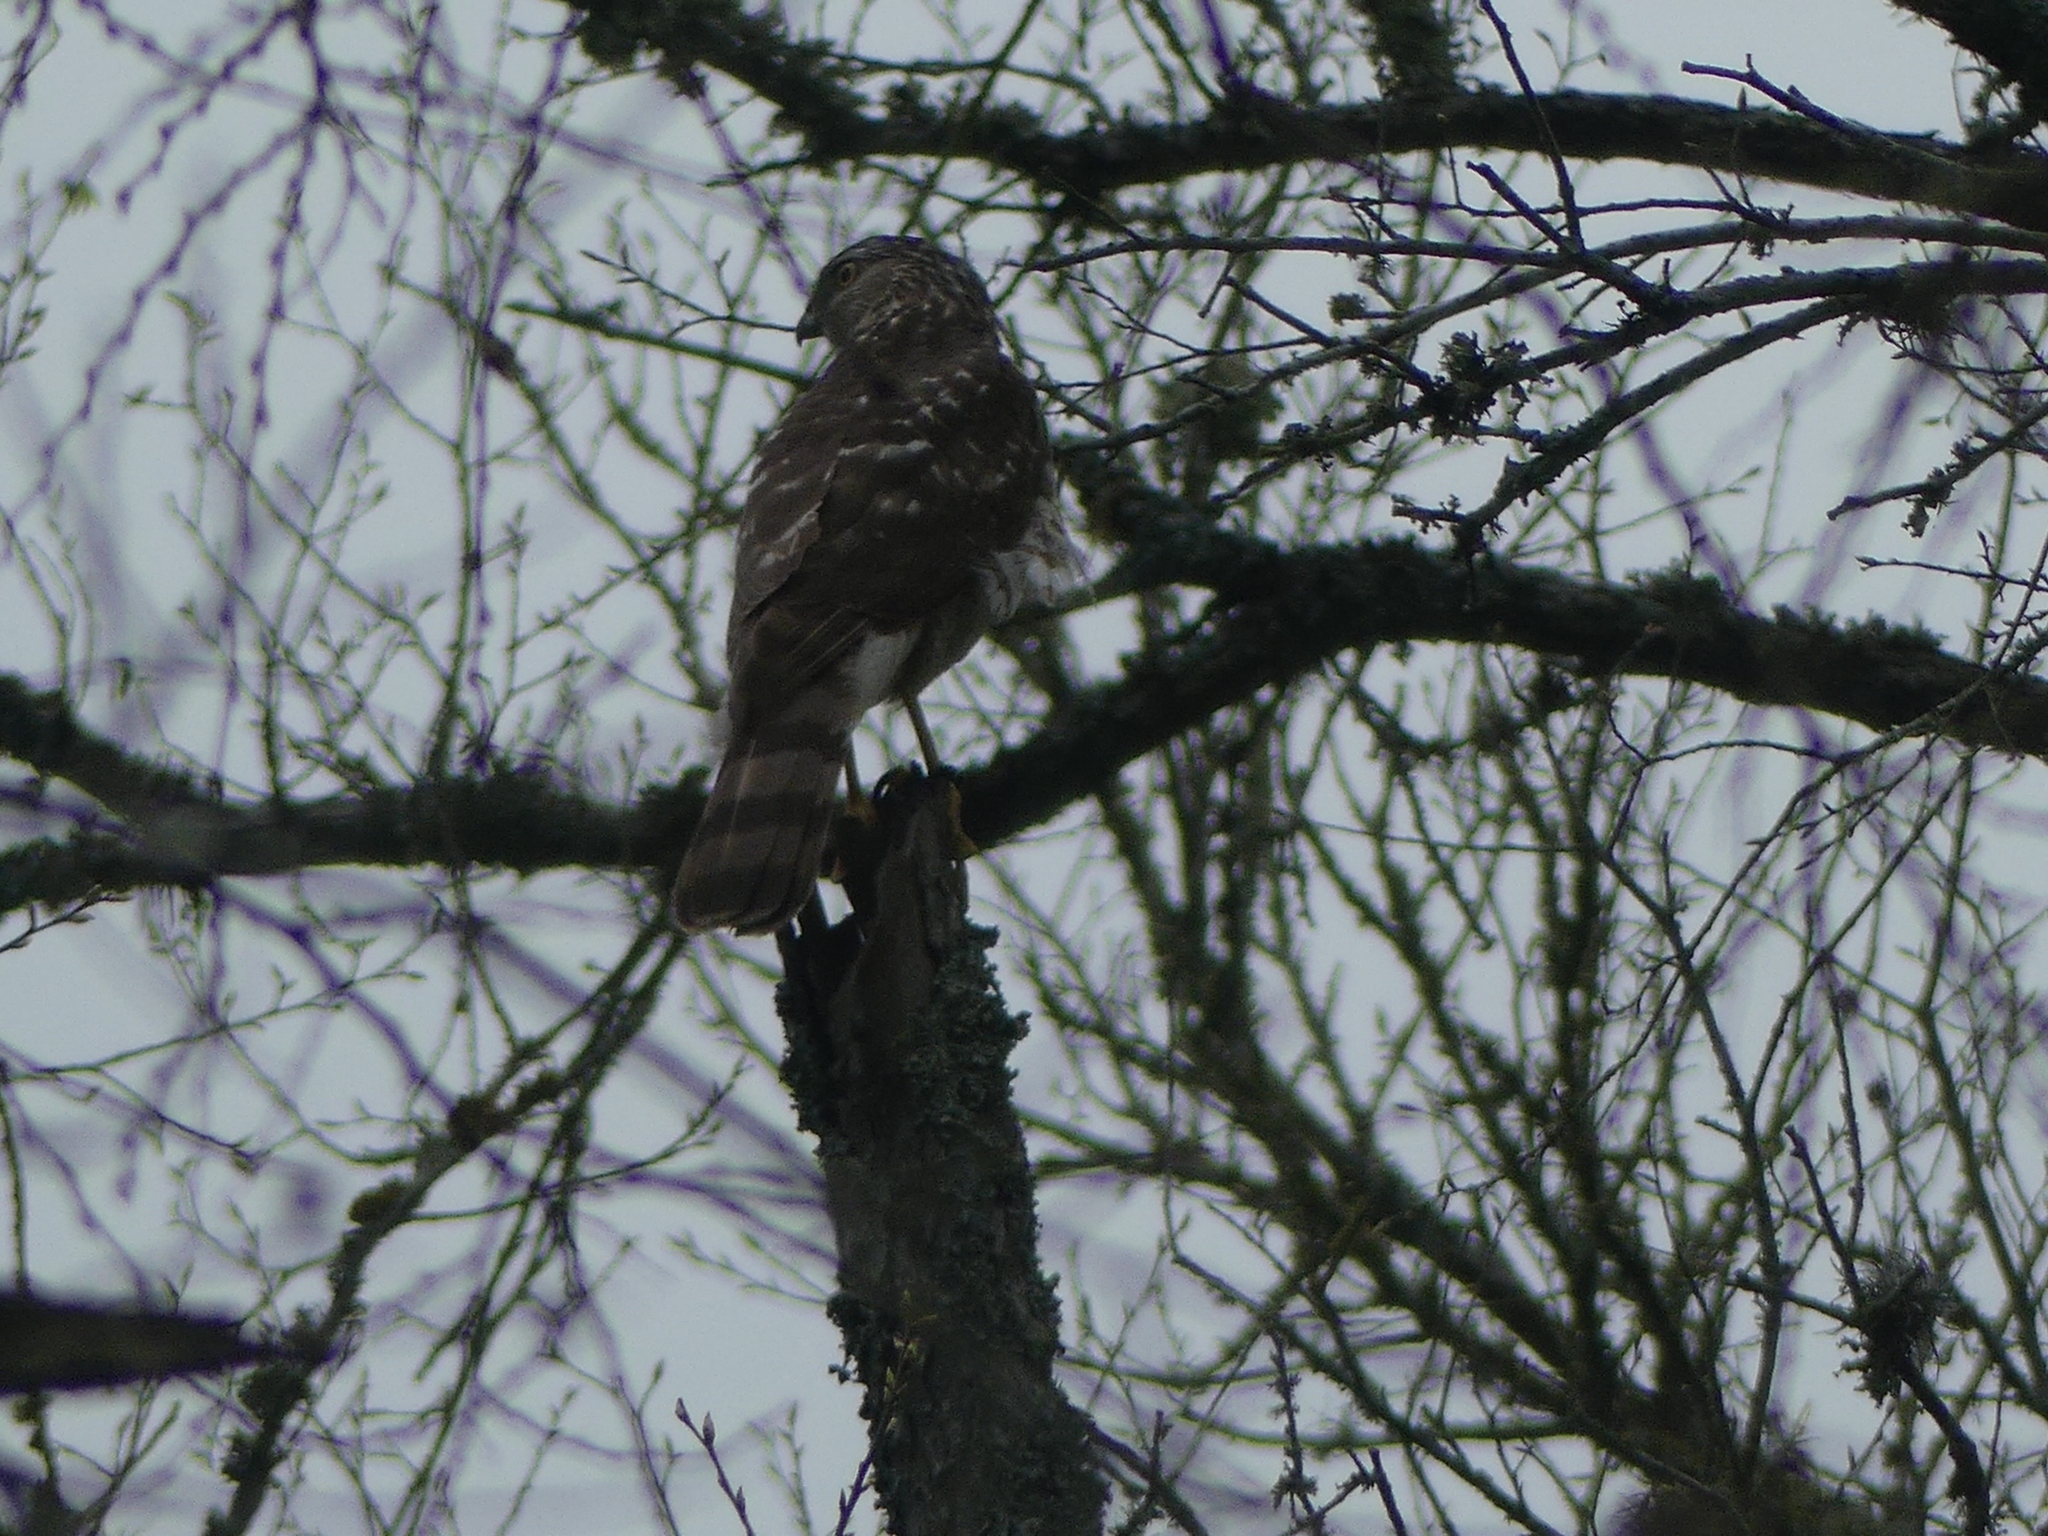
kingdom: Animalia
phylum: Chordata
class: Aves
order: Accipitriformes
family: Accipitridae
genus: Accipiter
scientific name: Accipiter striatus
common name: Sharp-shinned hawk
